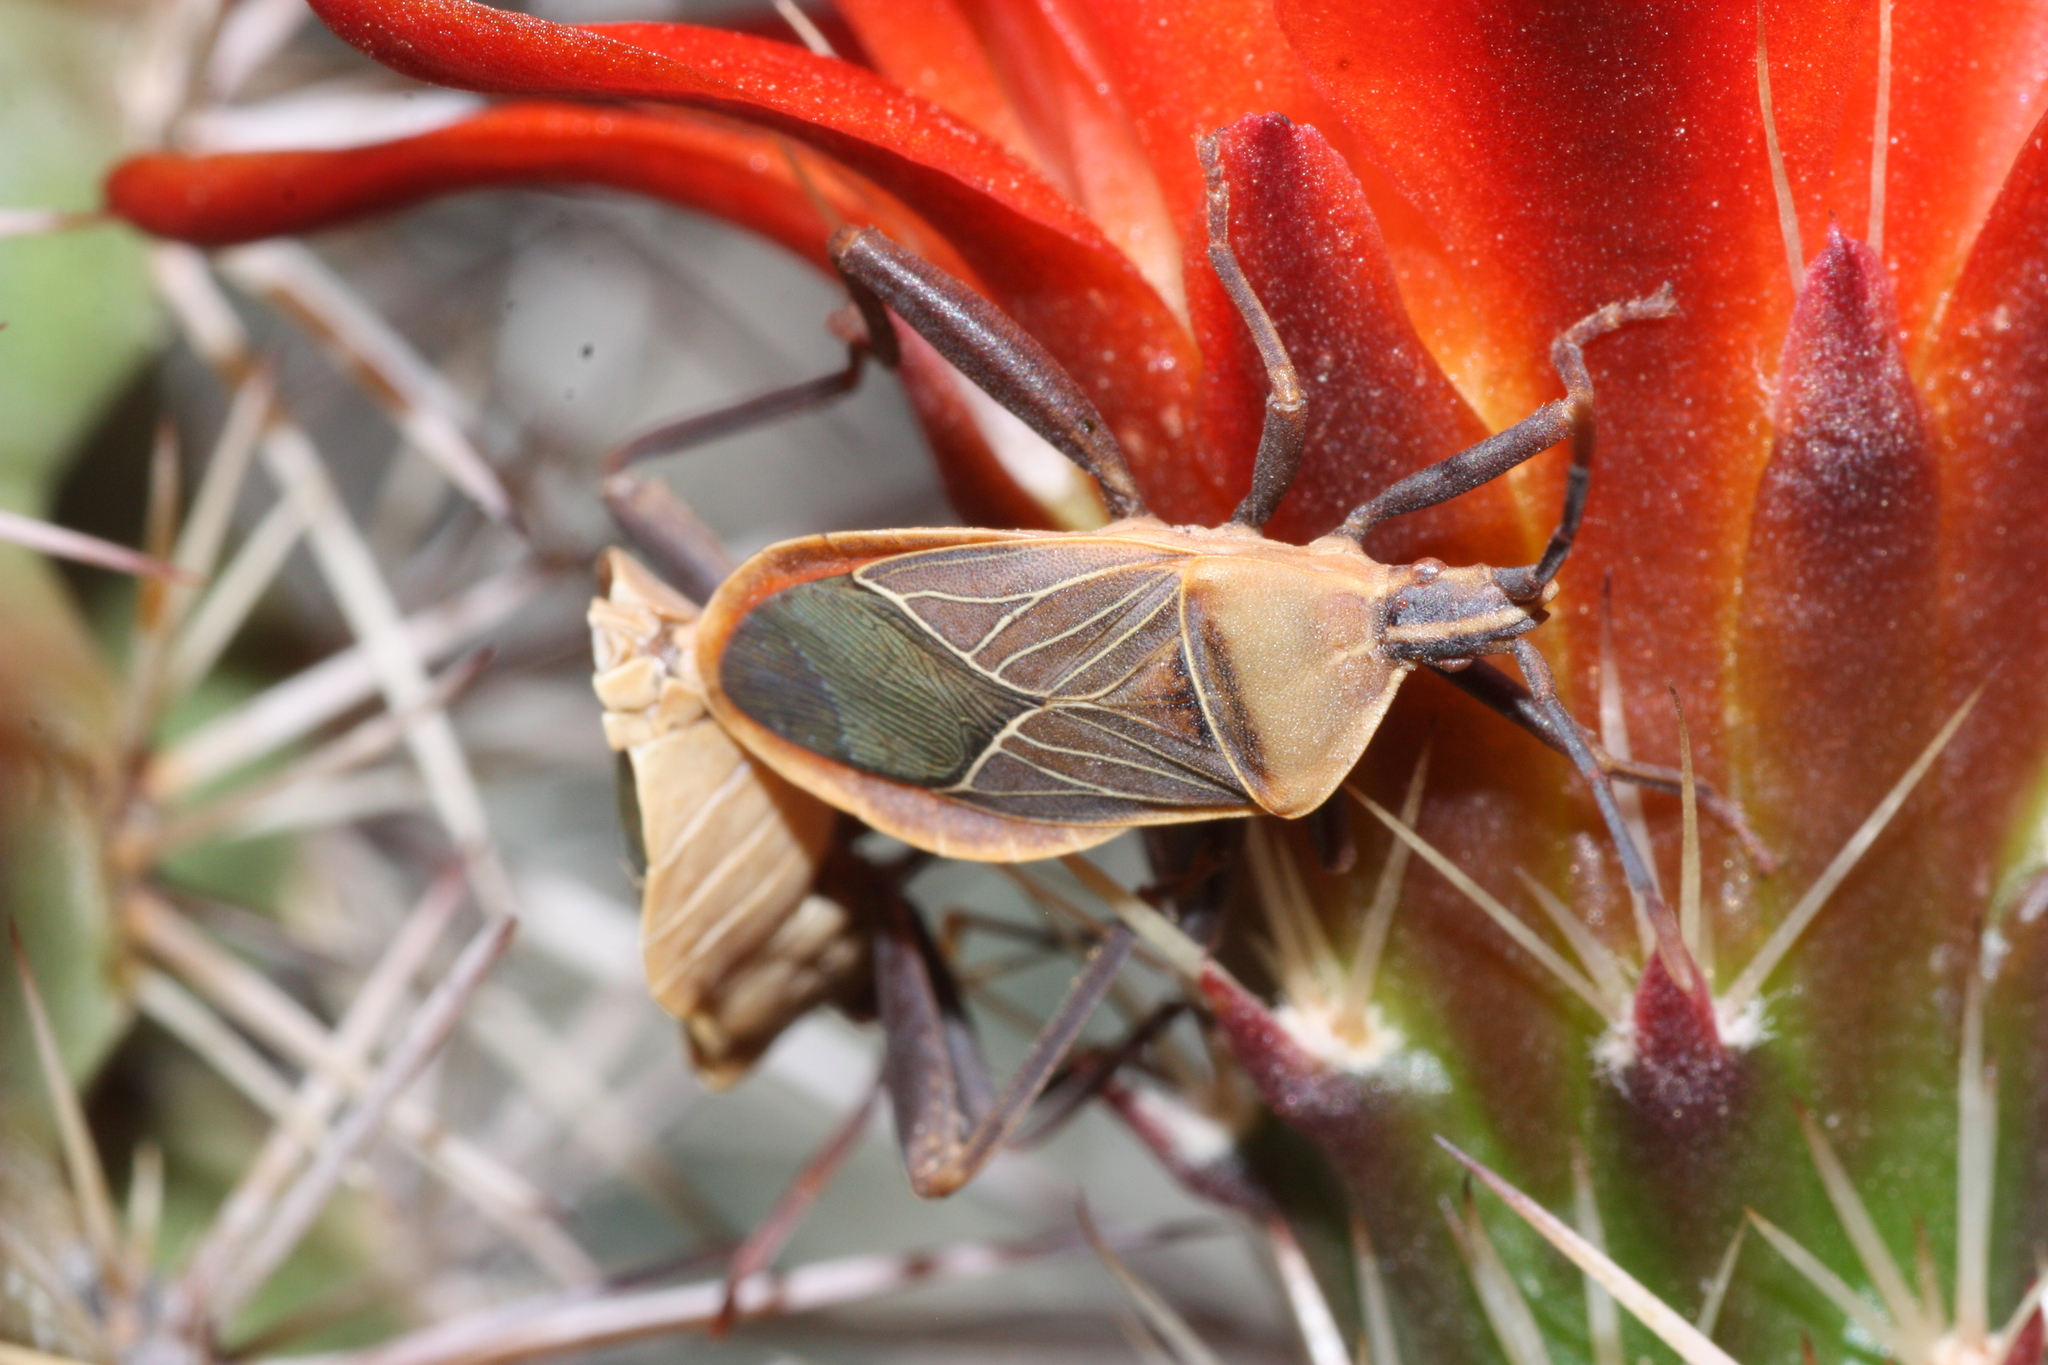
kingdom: Animalia
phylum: Arthropoda
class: Insecta
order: Hemiptera
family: Coreidae
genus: Chelinidea
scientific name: Chelinidea vittiger
